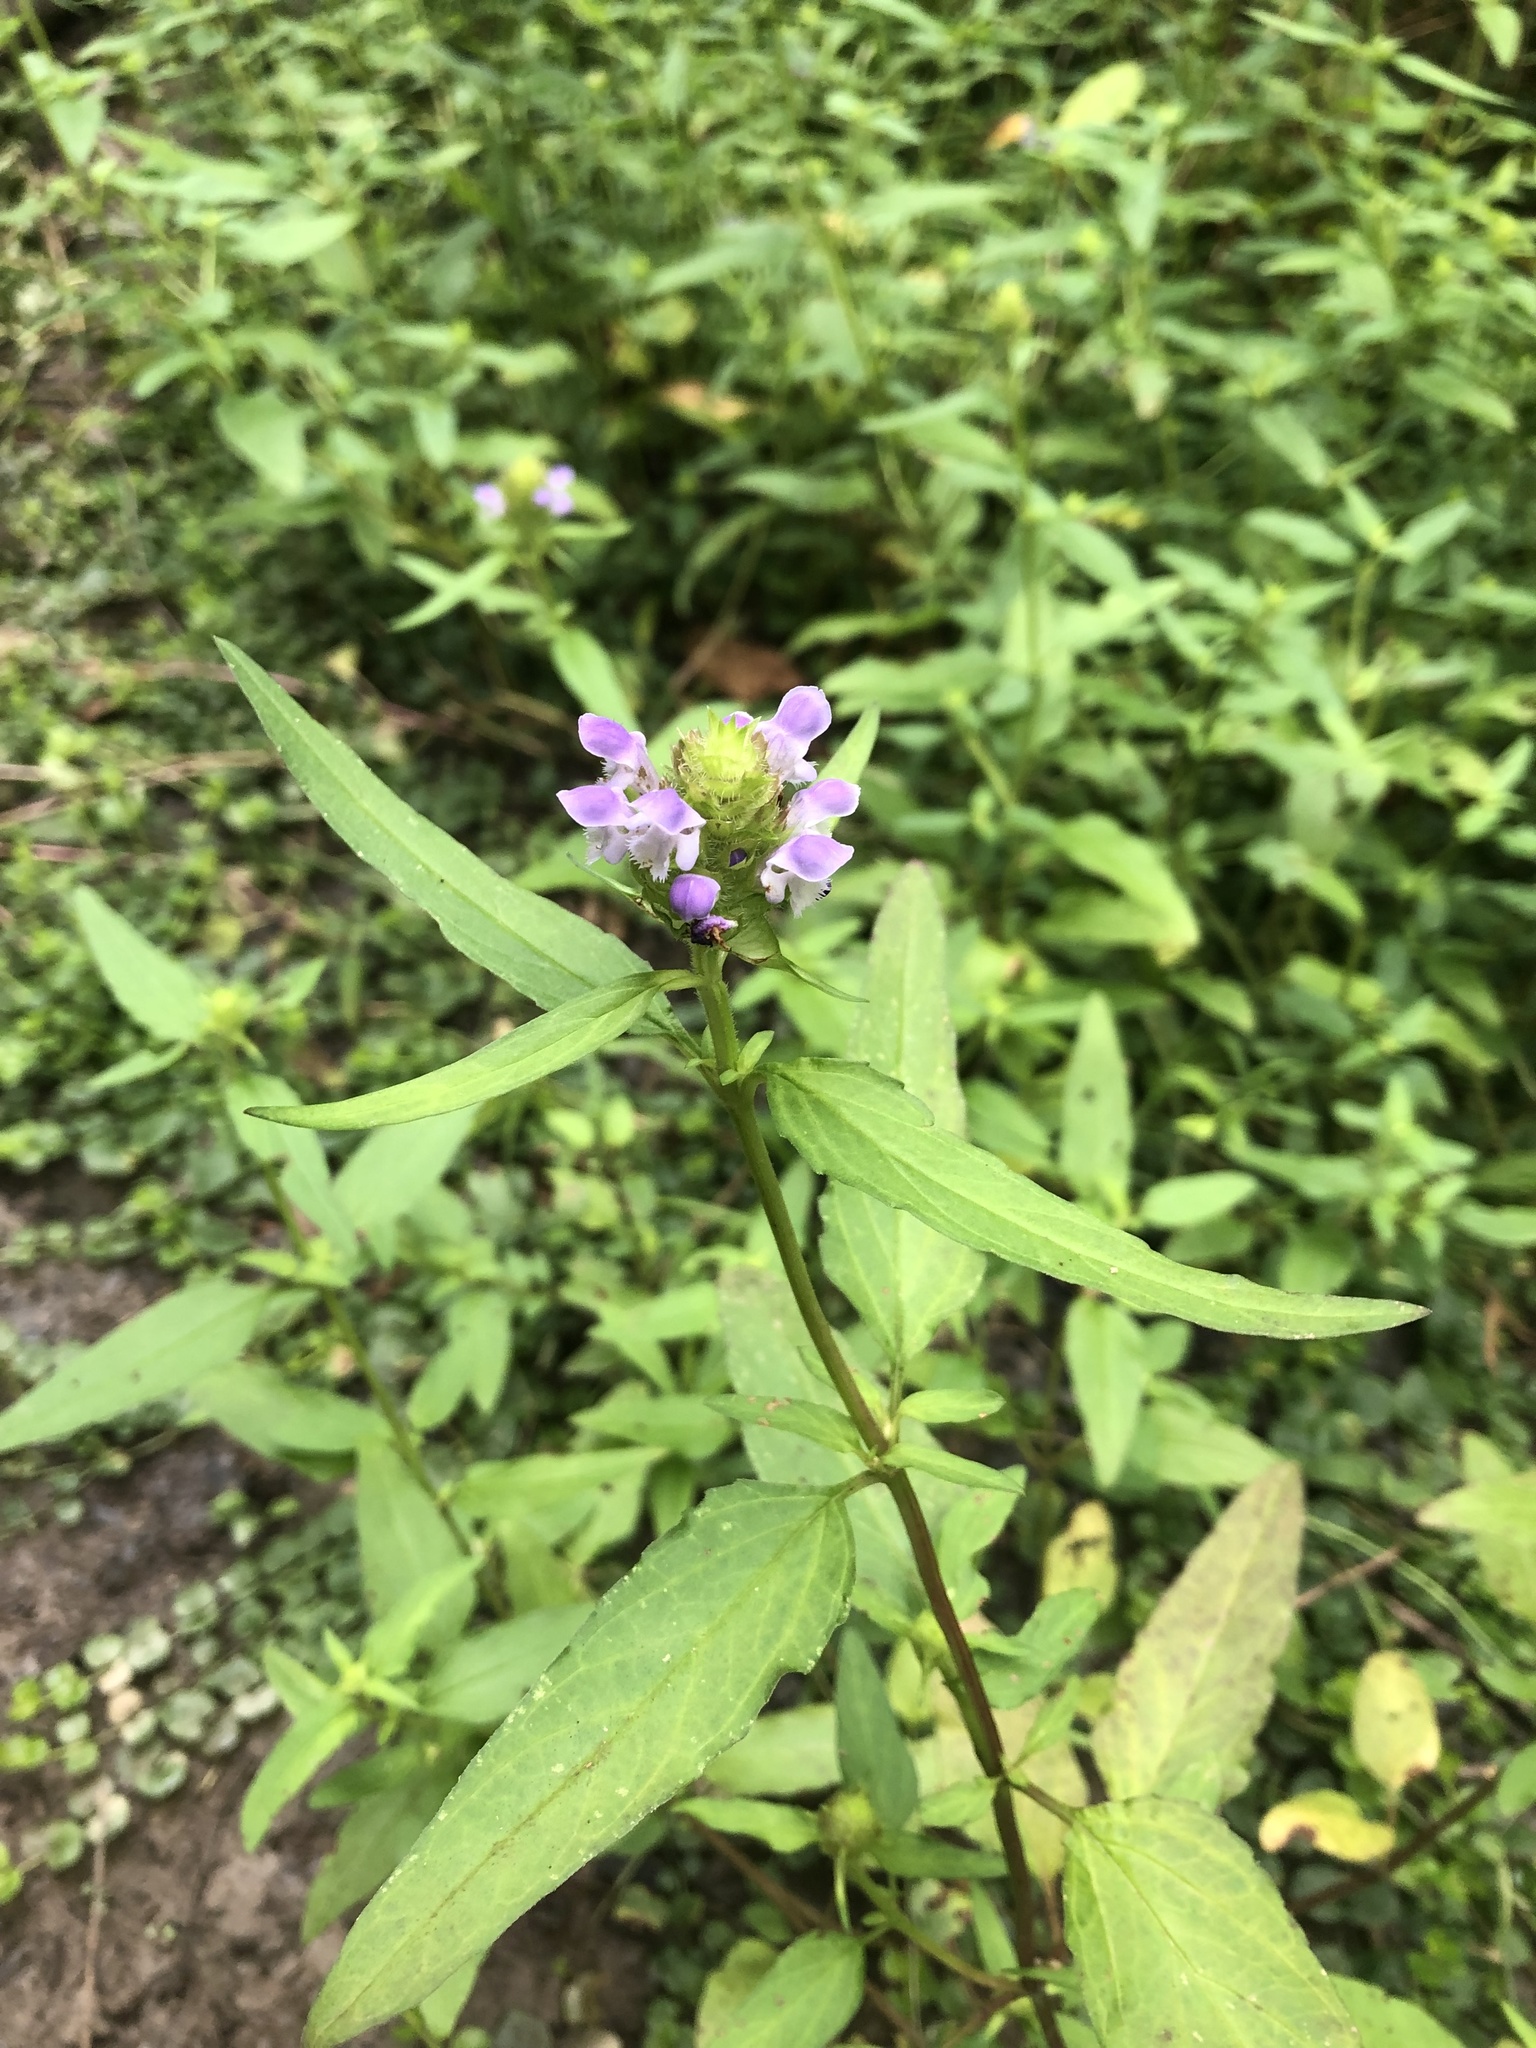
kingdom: Plantae
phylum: Tracheophyta
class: Magnoliopsida
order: Lamiales
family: Lamiaceae
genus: Prunella
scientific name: Prunella vulgaris
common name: Heal-all
